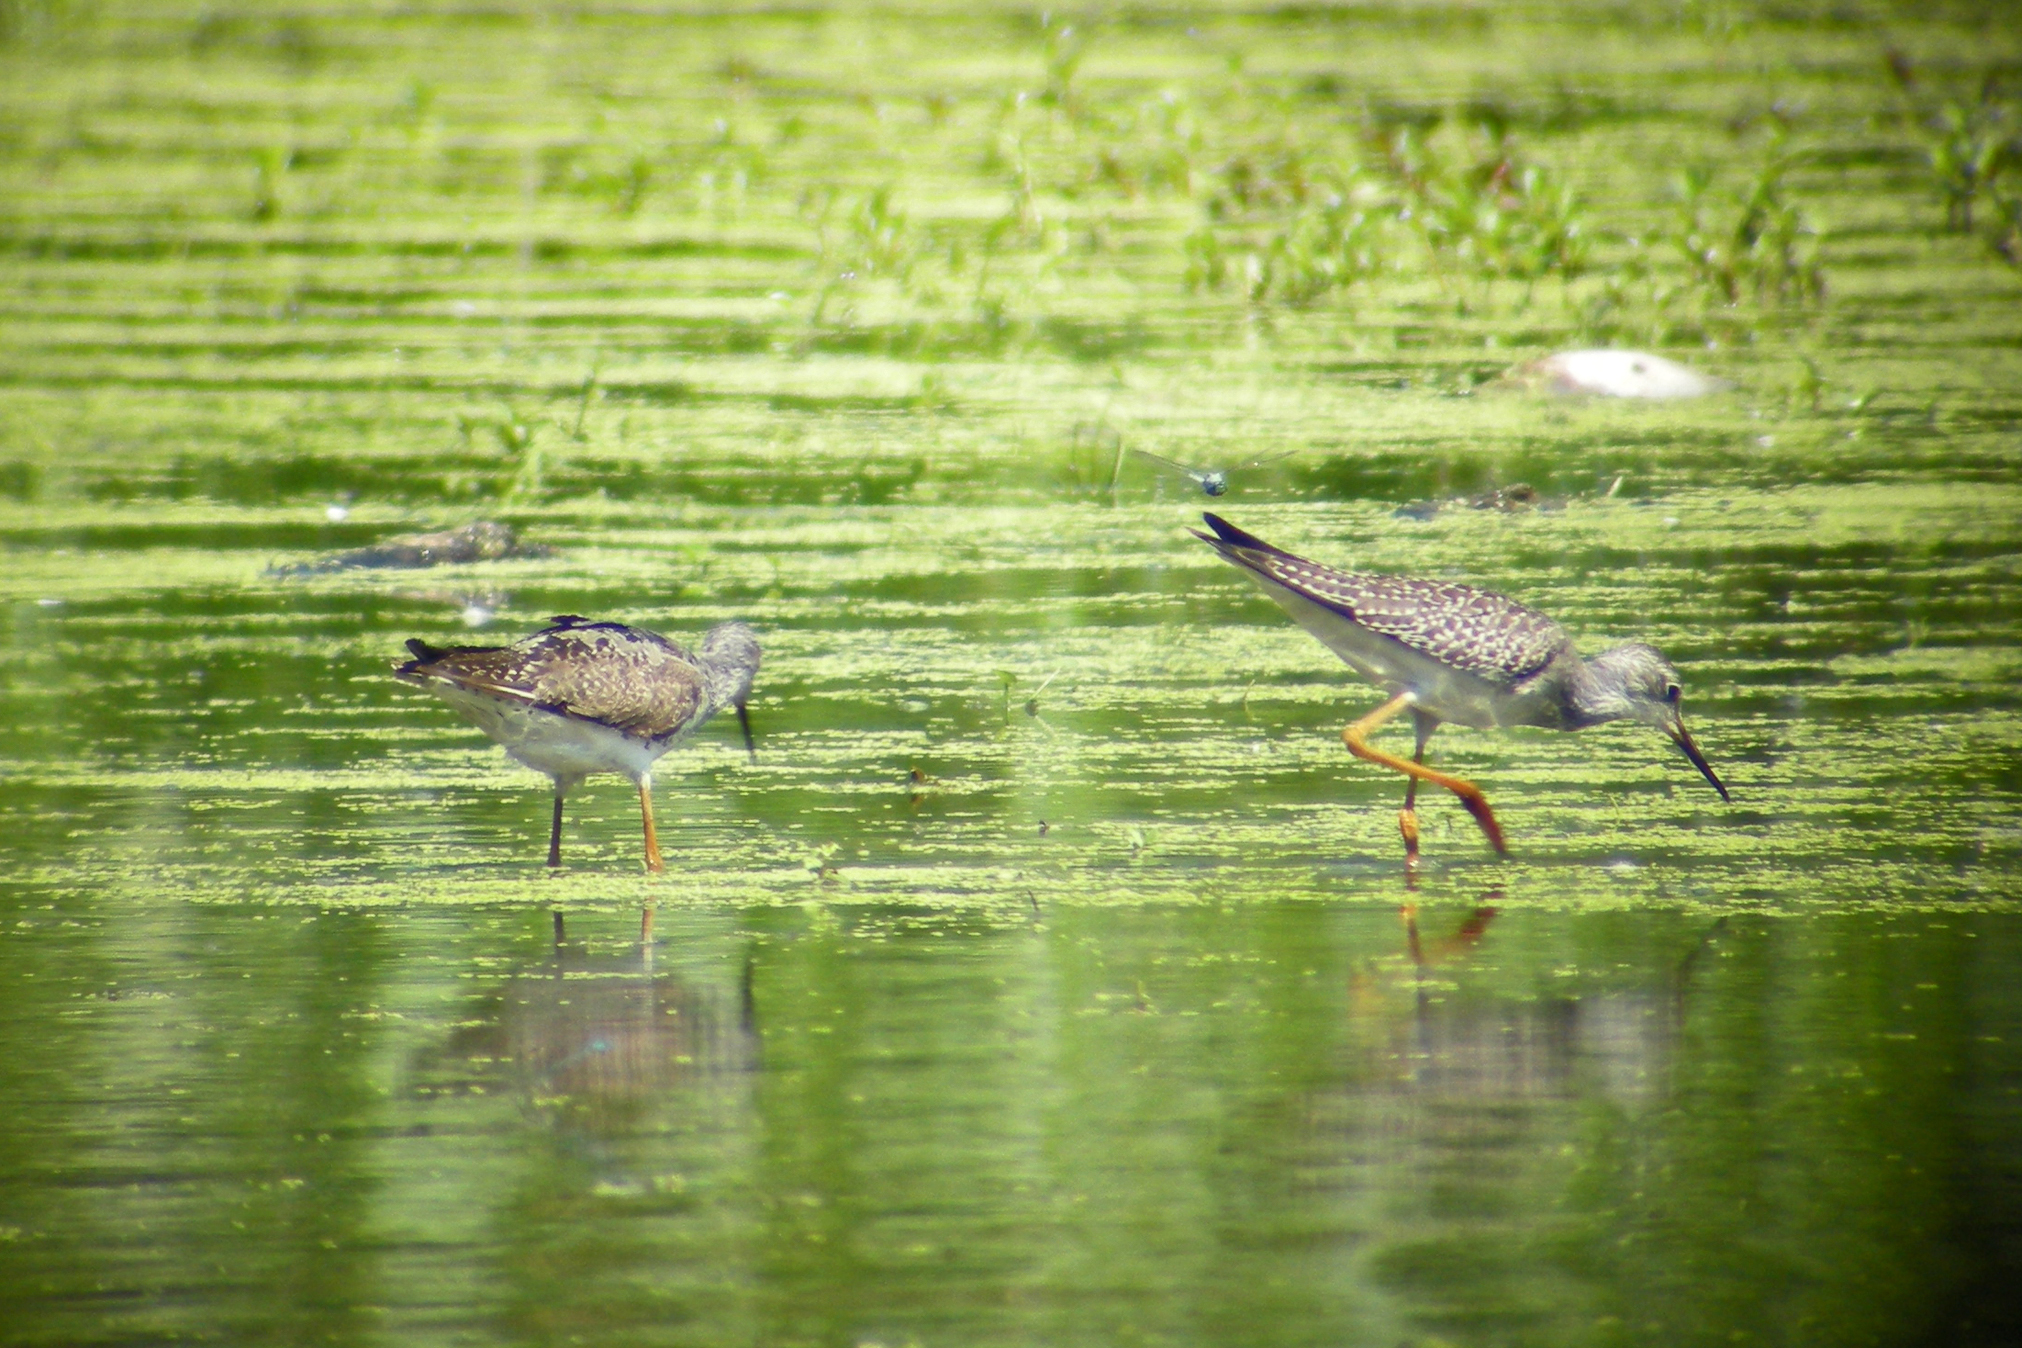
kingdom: Animalia
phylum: Chordata
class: Aves
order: Charadriiformes
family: Scolopacidae
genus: Tringa
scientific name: Tringa flavipes
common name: Lesser yellowlegs
